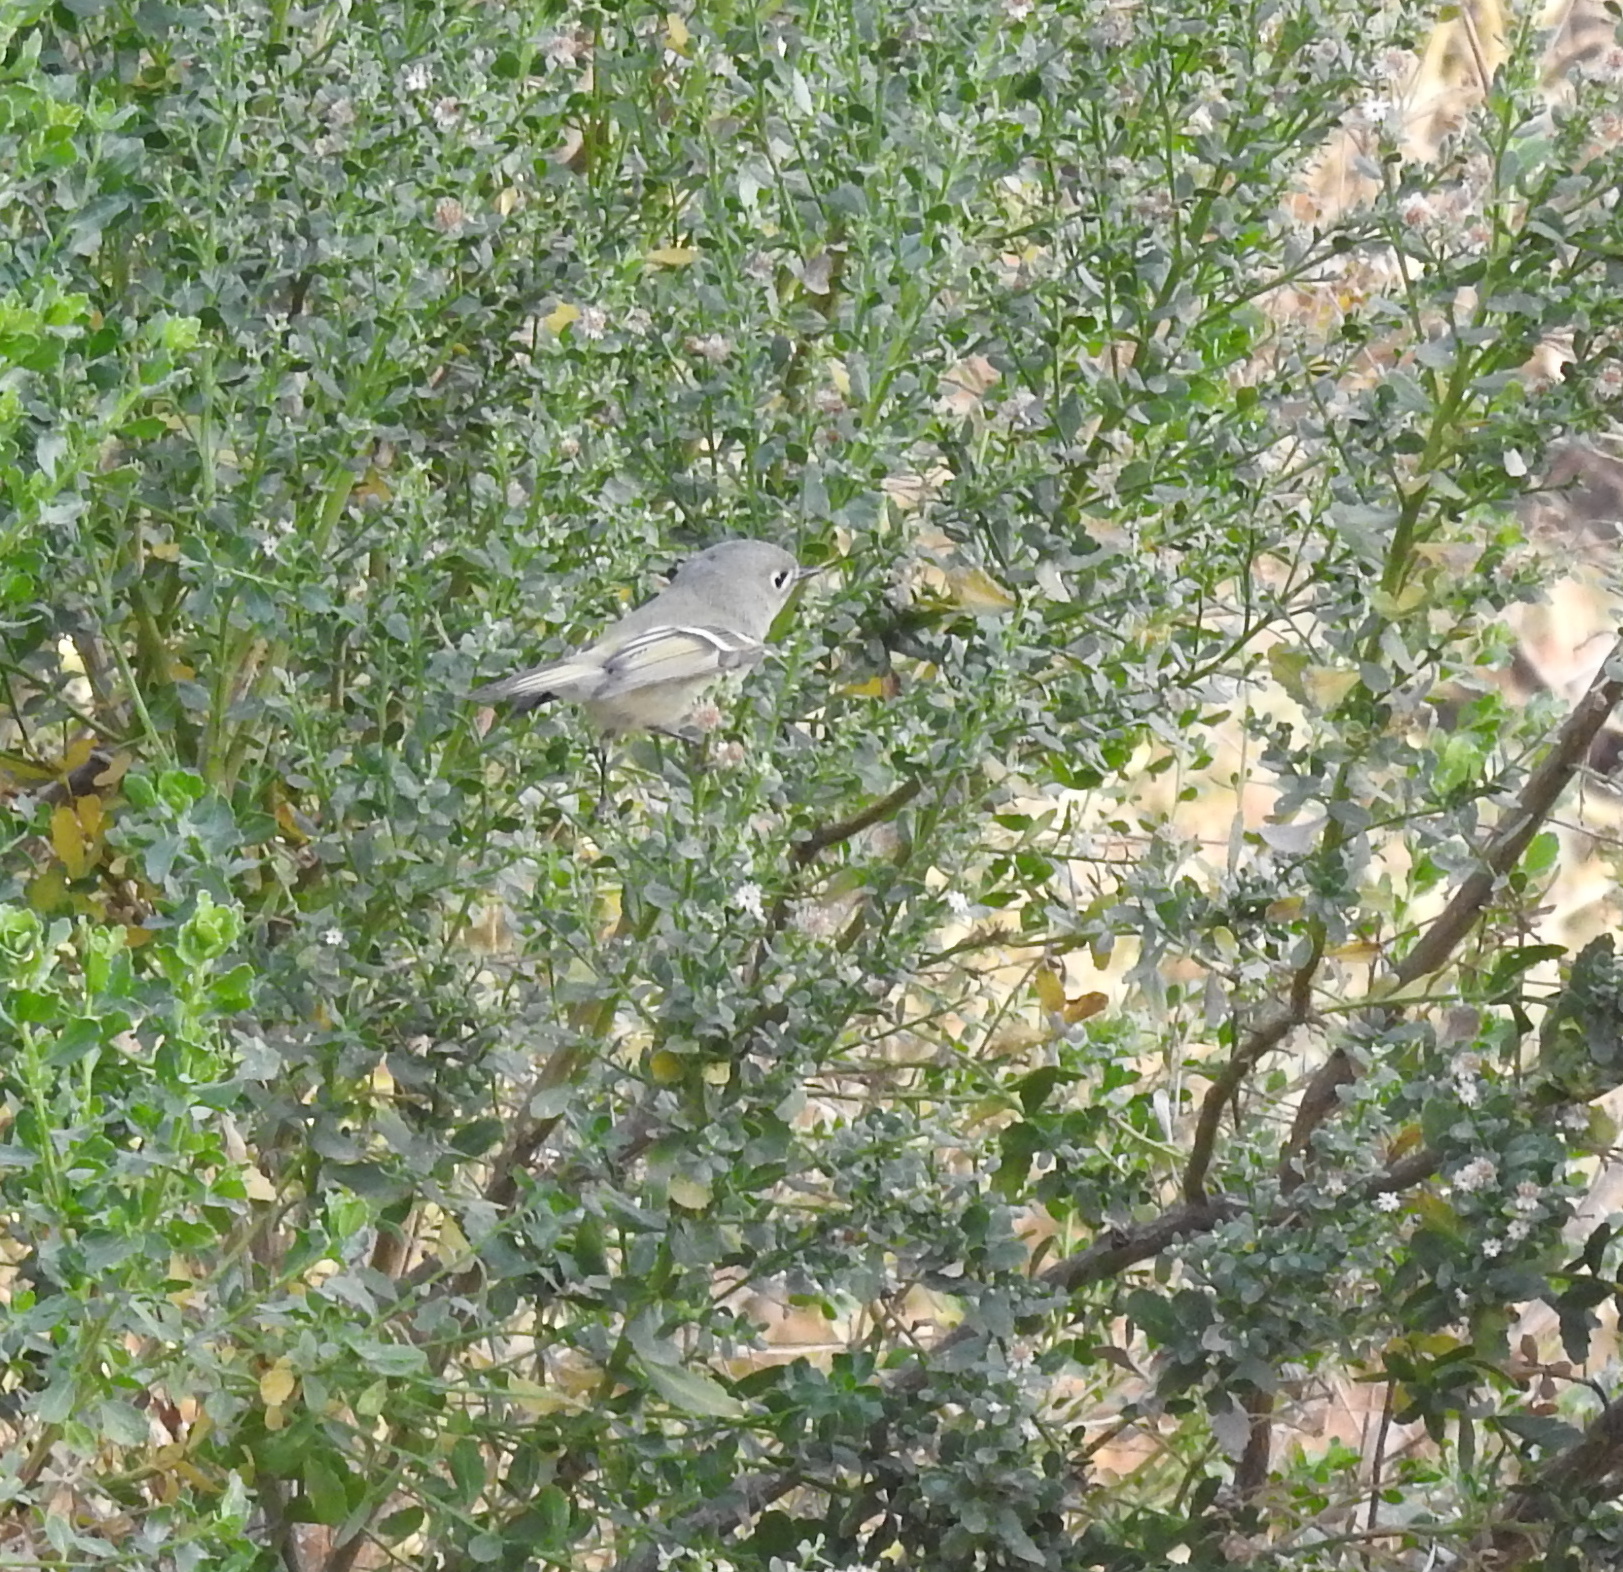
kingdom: Animalia
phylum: Chordata
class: Aves
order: Passeriformes
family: Regulidae
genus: Regulus
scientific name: Regulus calendula
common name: Ruby-crowned kinglet
